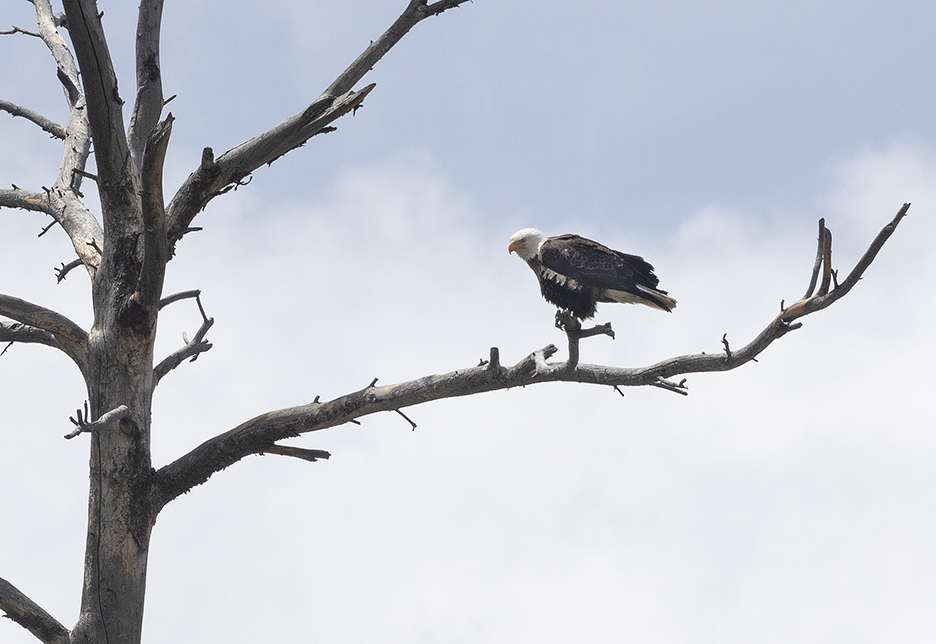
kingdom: Animalia
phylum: Chordata
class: Aves
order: Accipitriformes
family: Accipitridae
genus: Haliaeetus
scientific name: Haliaeetus leucocephalus
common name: Bald eagle
